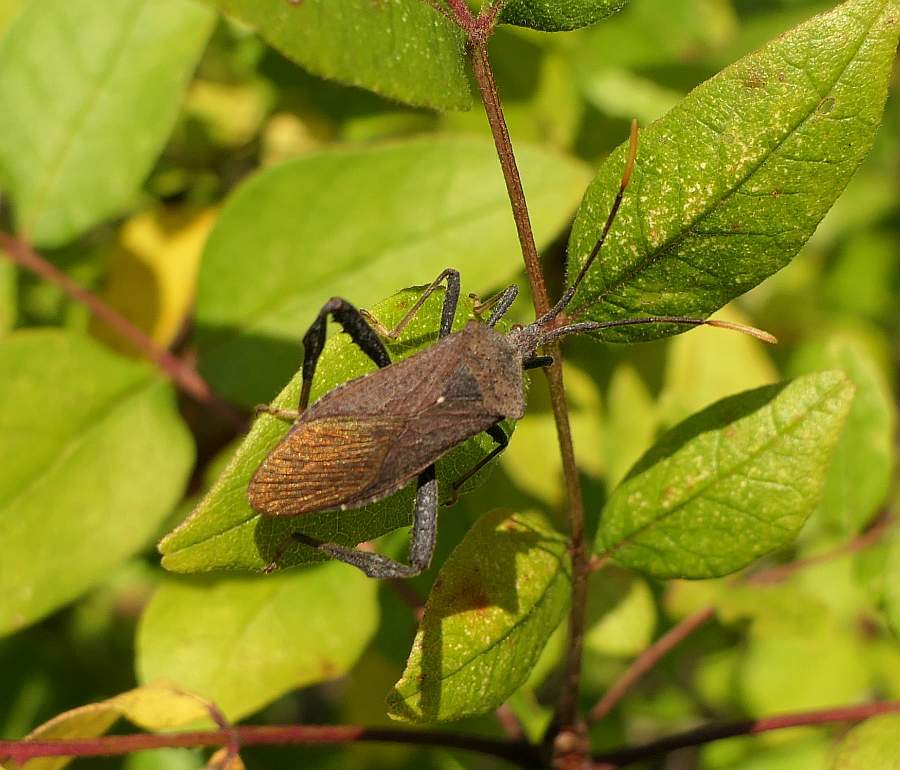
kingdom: Animalia
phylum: Arthropoda
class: Insecta
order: Hemiptera
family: Coreidae
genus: Acanthocephala
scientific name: Acanthocephala terminalis
